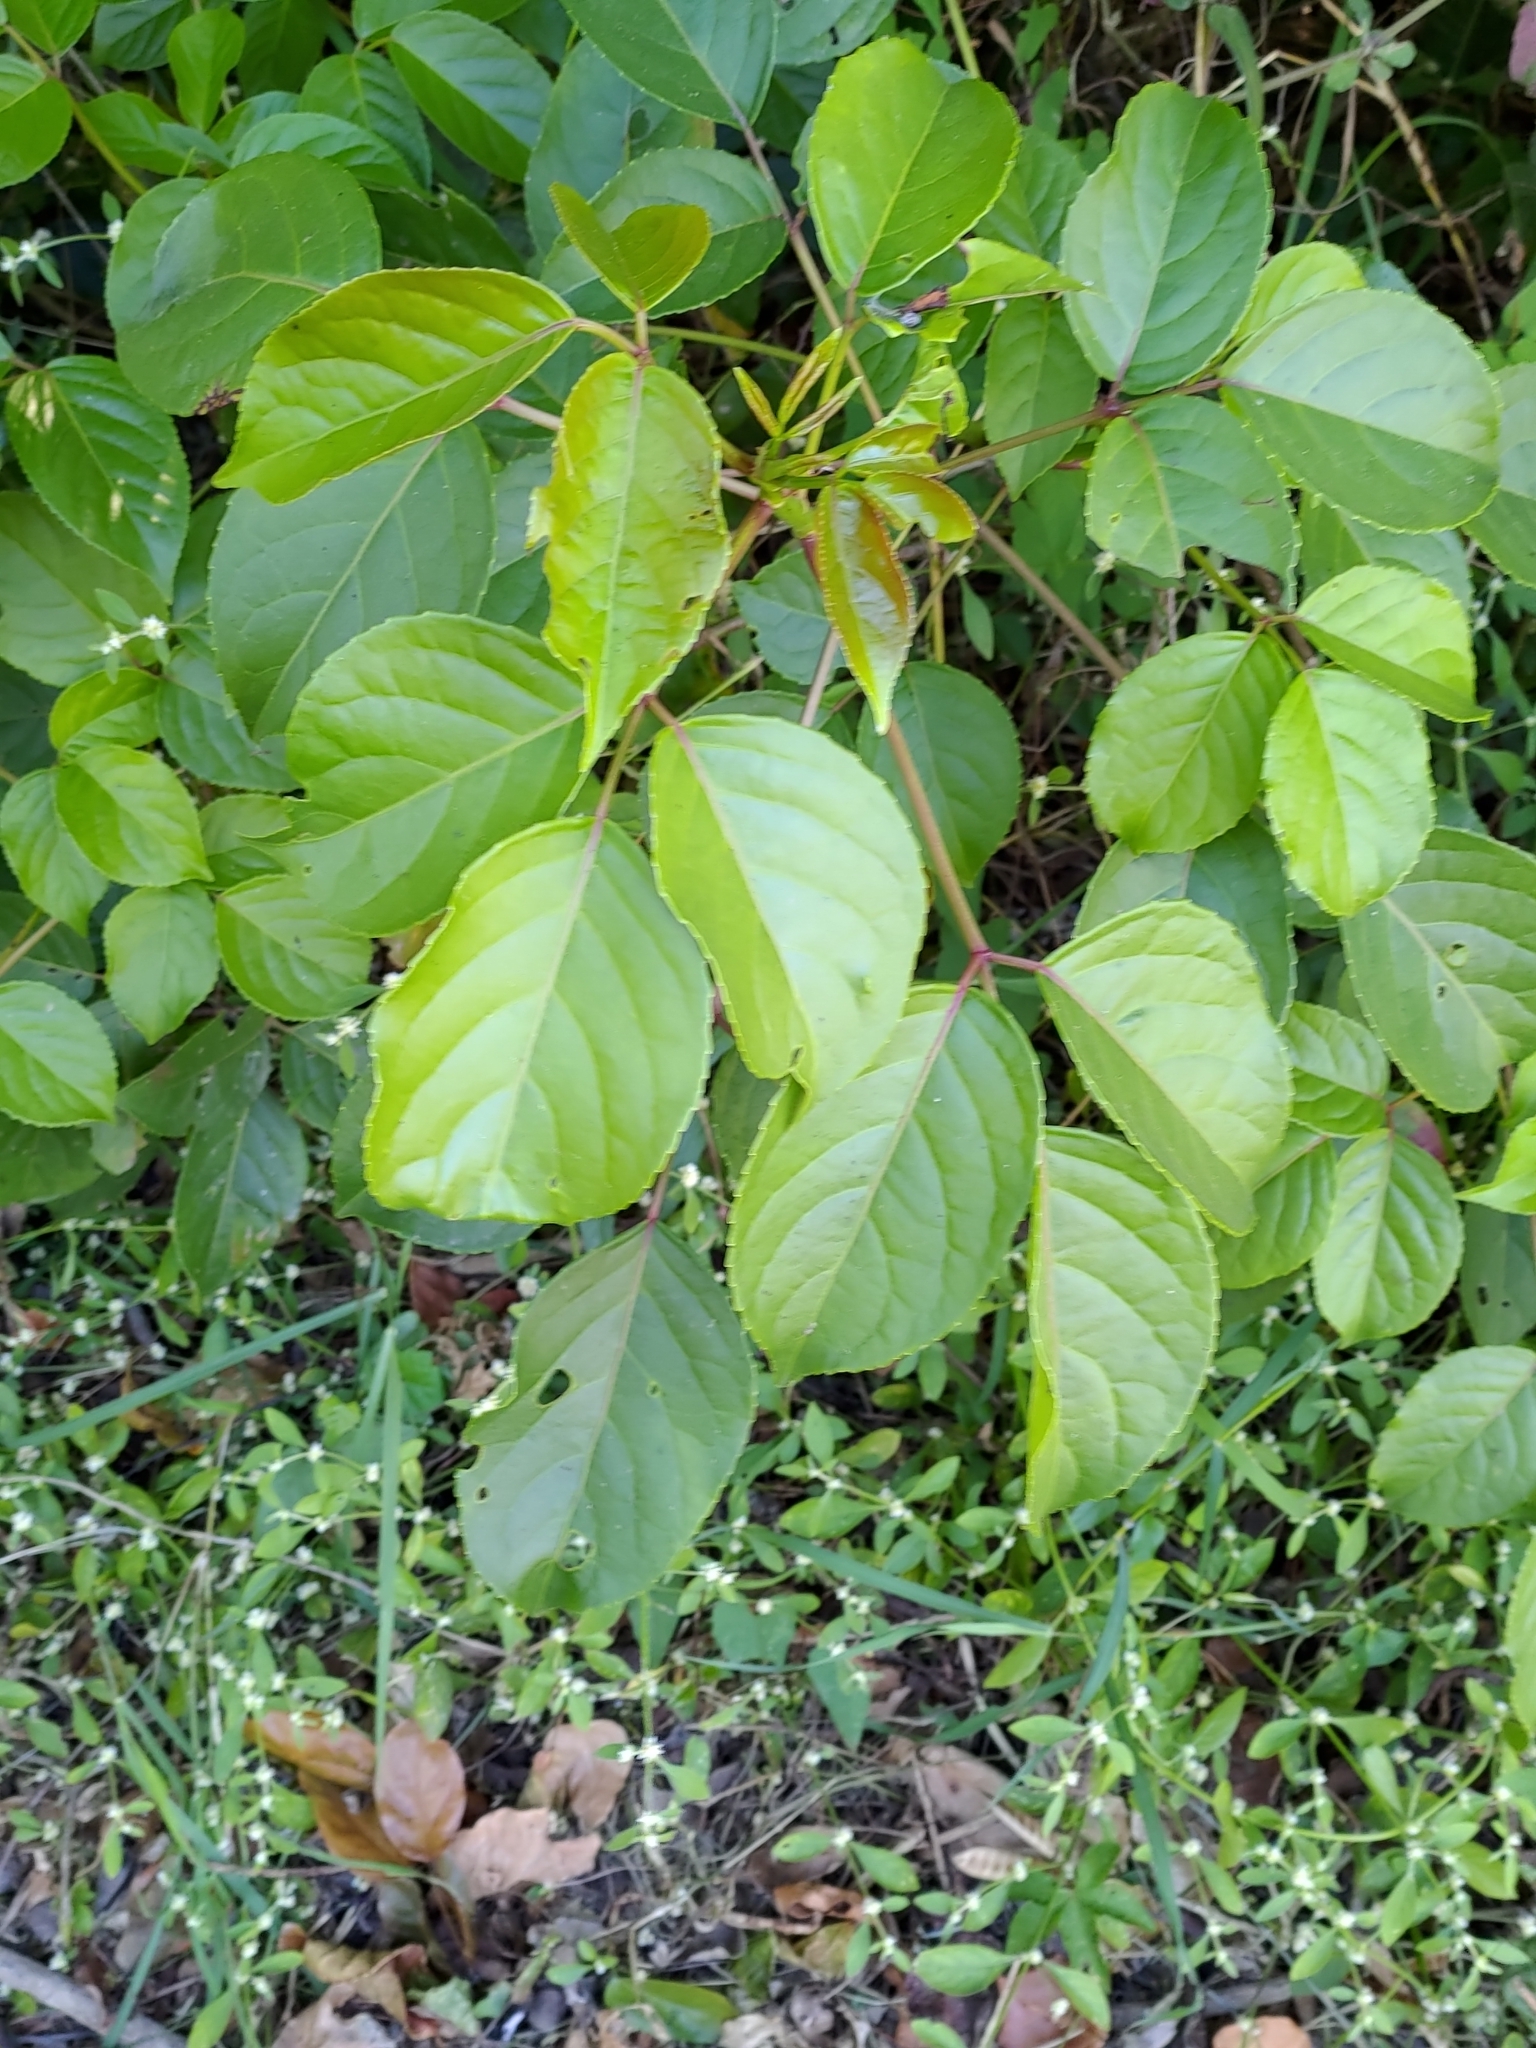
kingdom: Plantae
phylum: Tracheophyta
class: Magnoliopsida
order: Malpighiales
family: Phyllanthaceae
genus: Bischofia
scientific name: Bischofia javanica
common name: Javanese bishopwood
